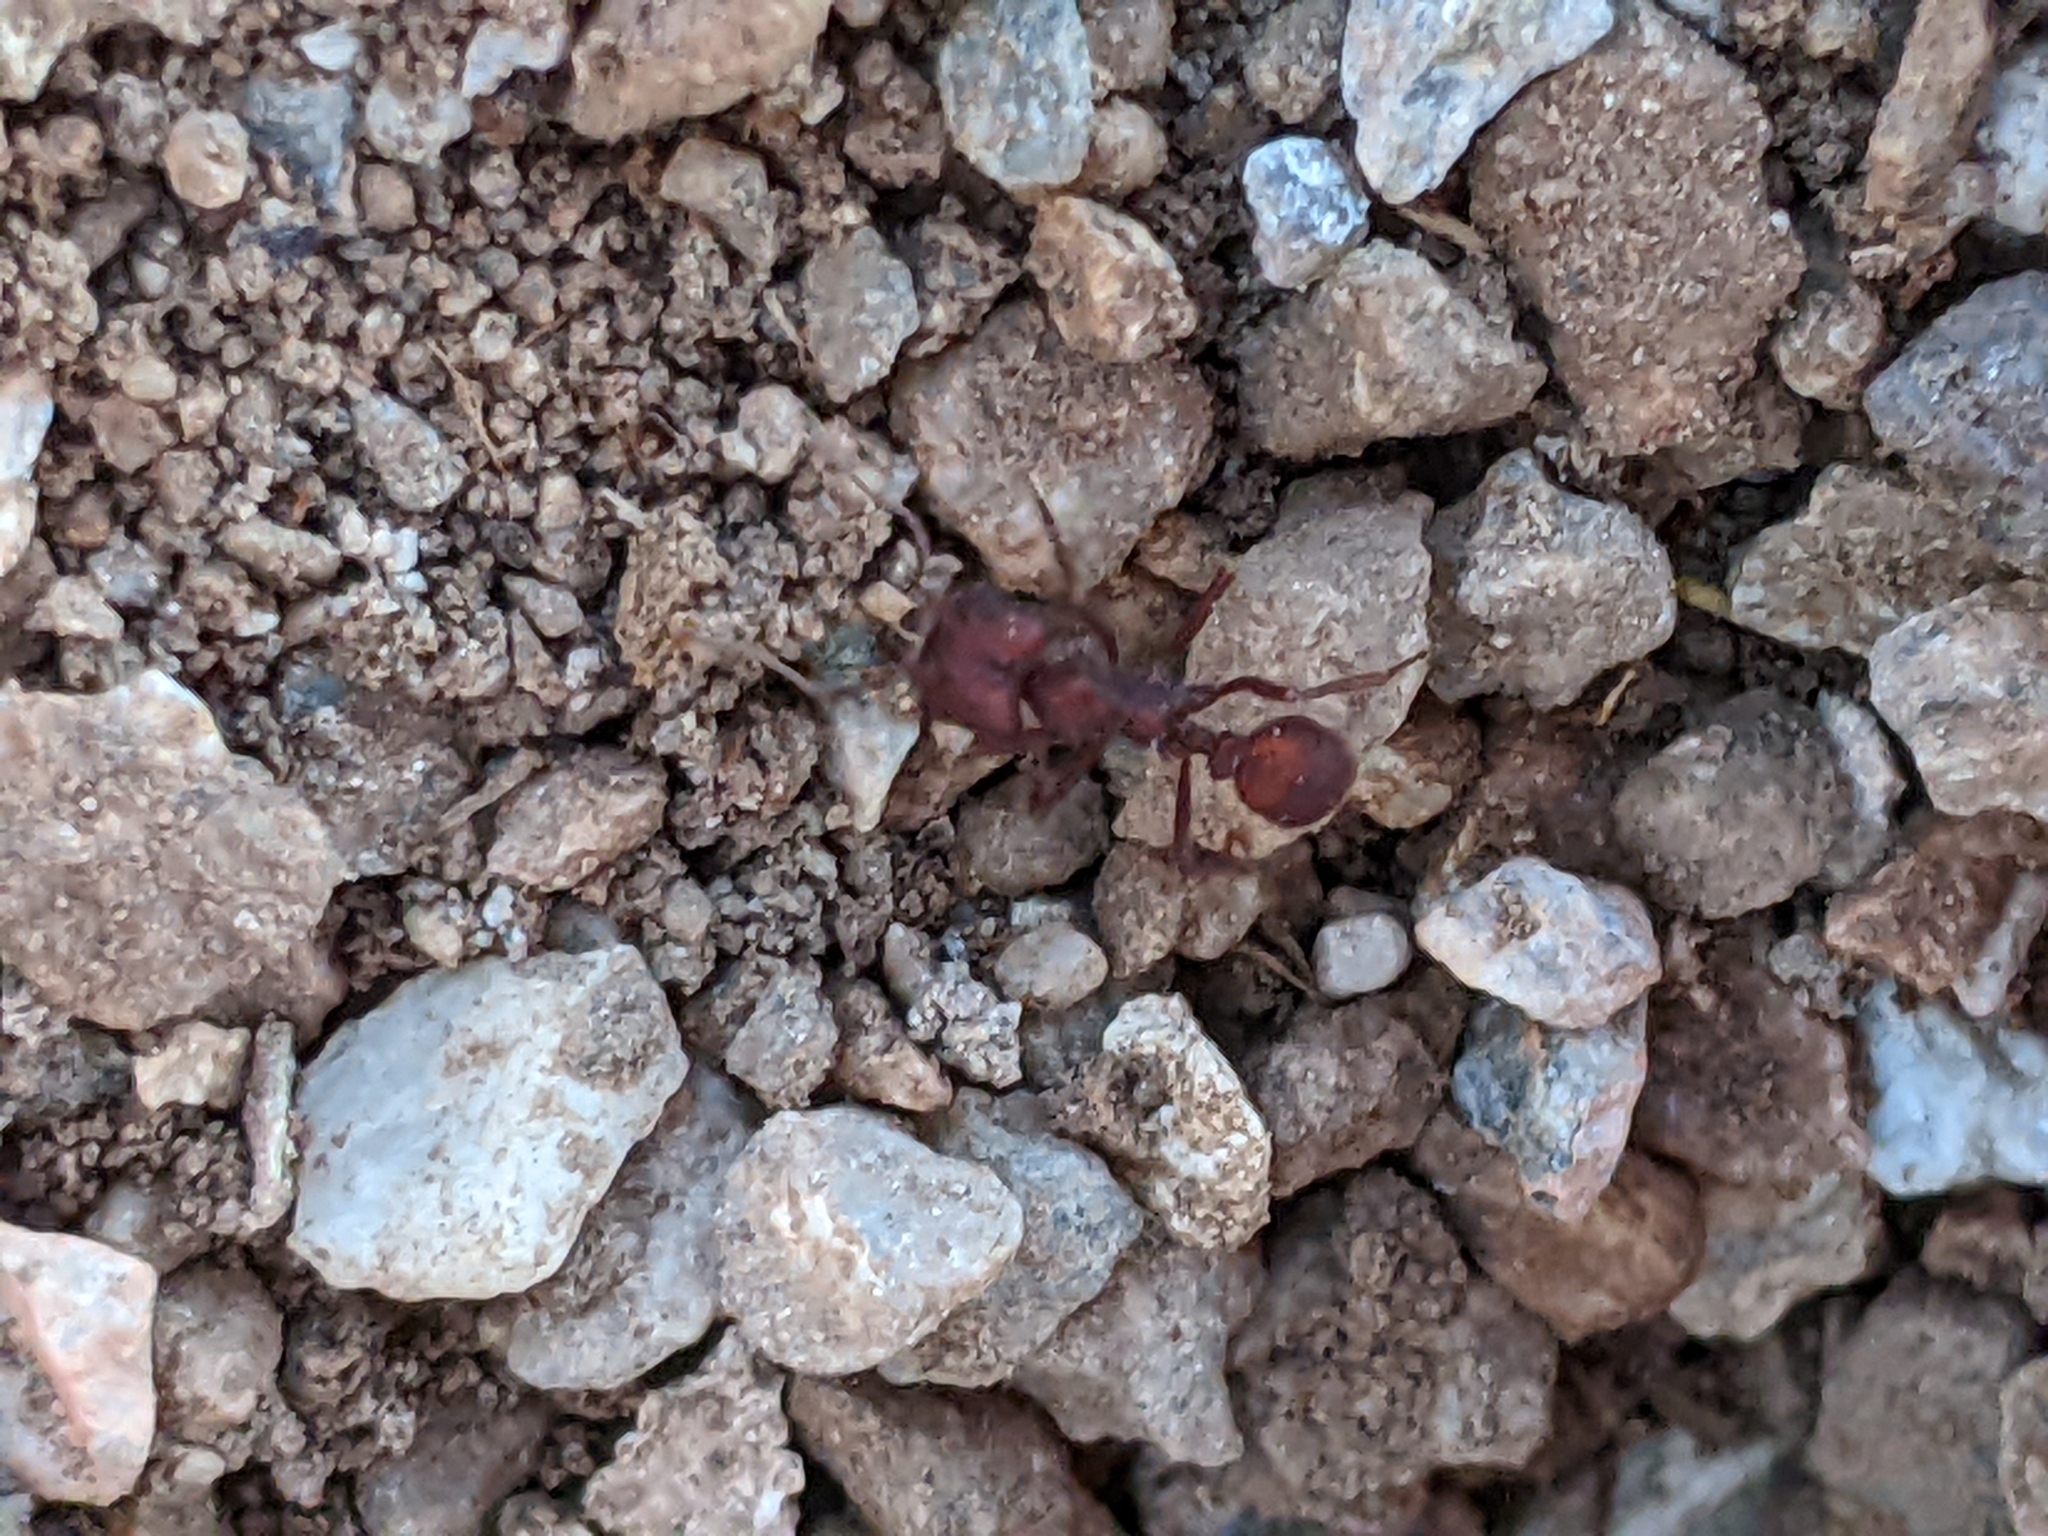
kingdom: Animalia
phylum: Arthropoda
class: Insecta
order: Hymenoptera
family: Formicidae
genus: Acromyrmex
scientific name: Acromyrmex versicolor
